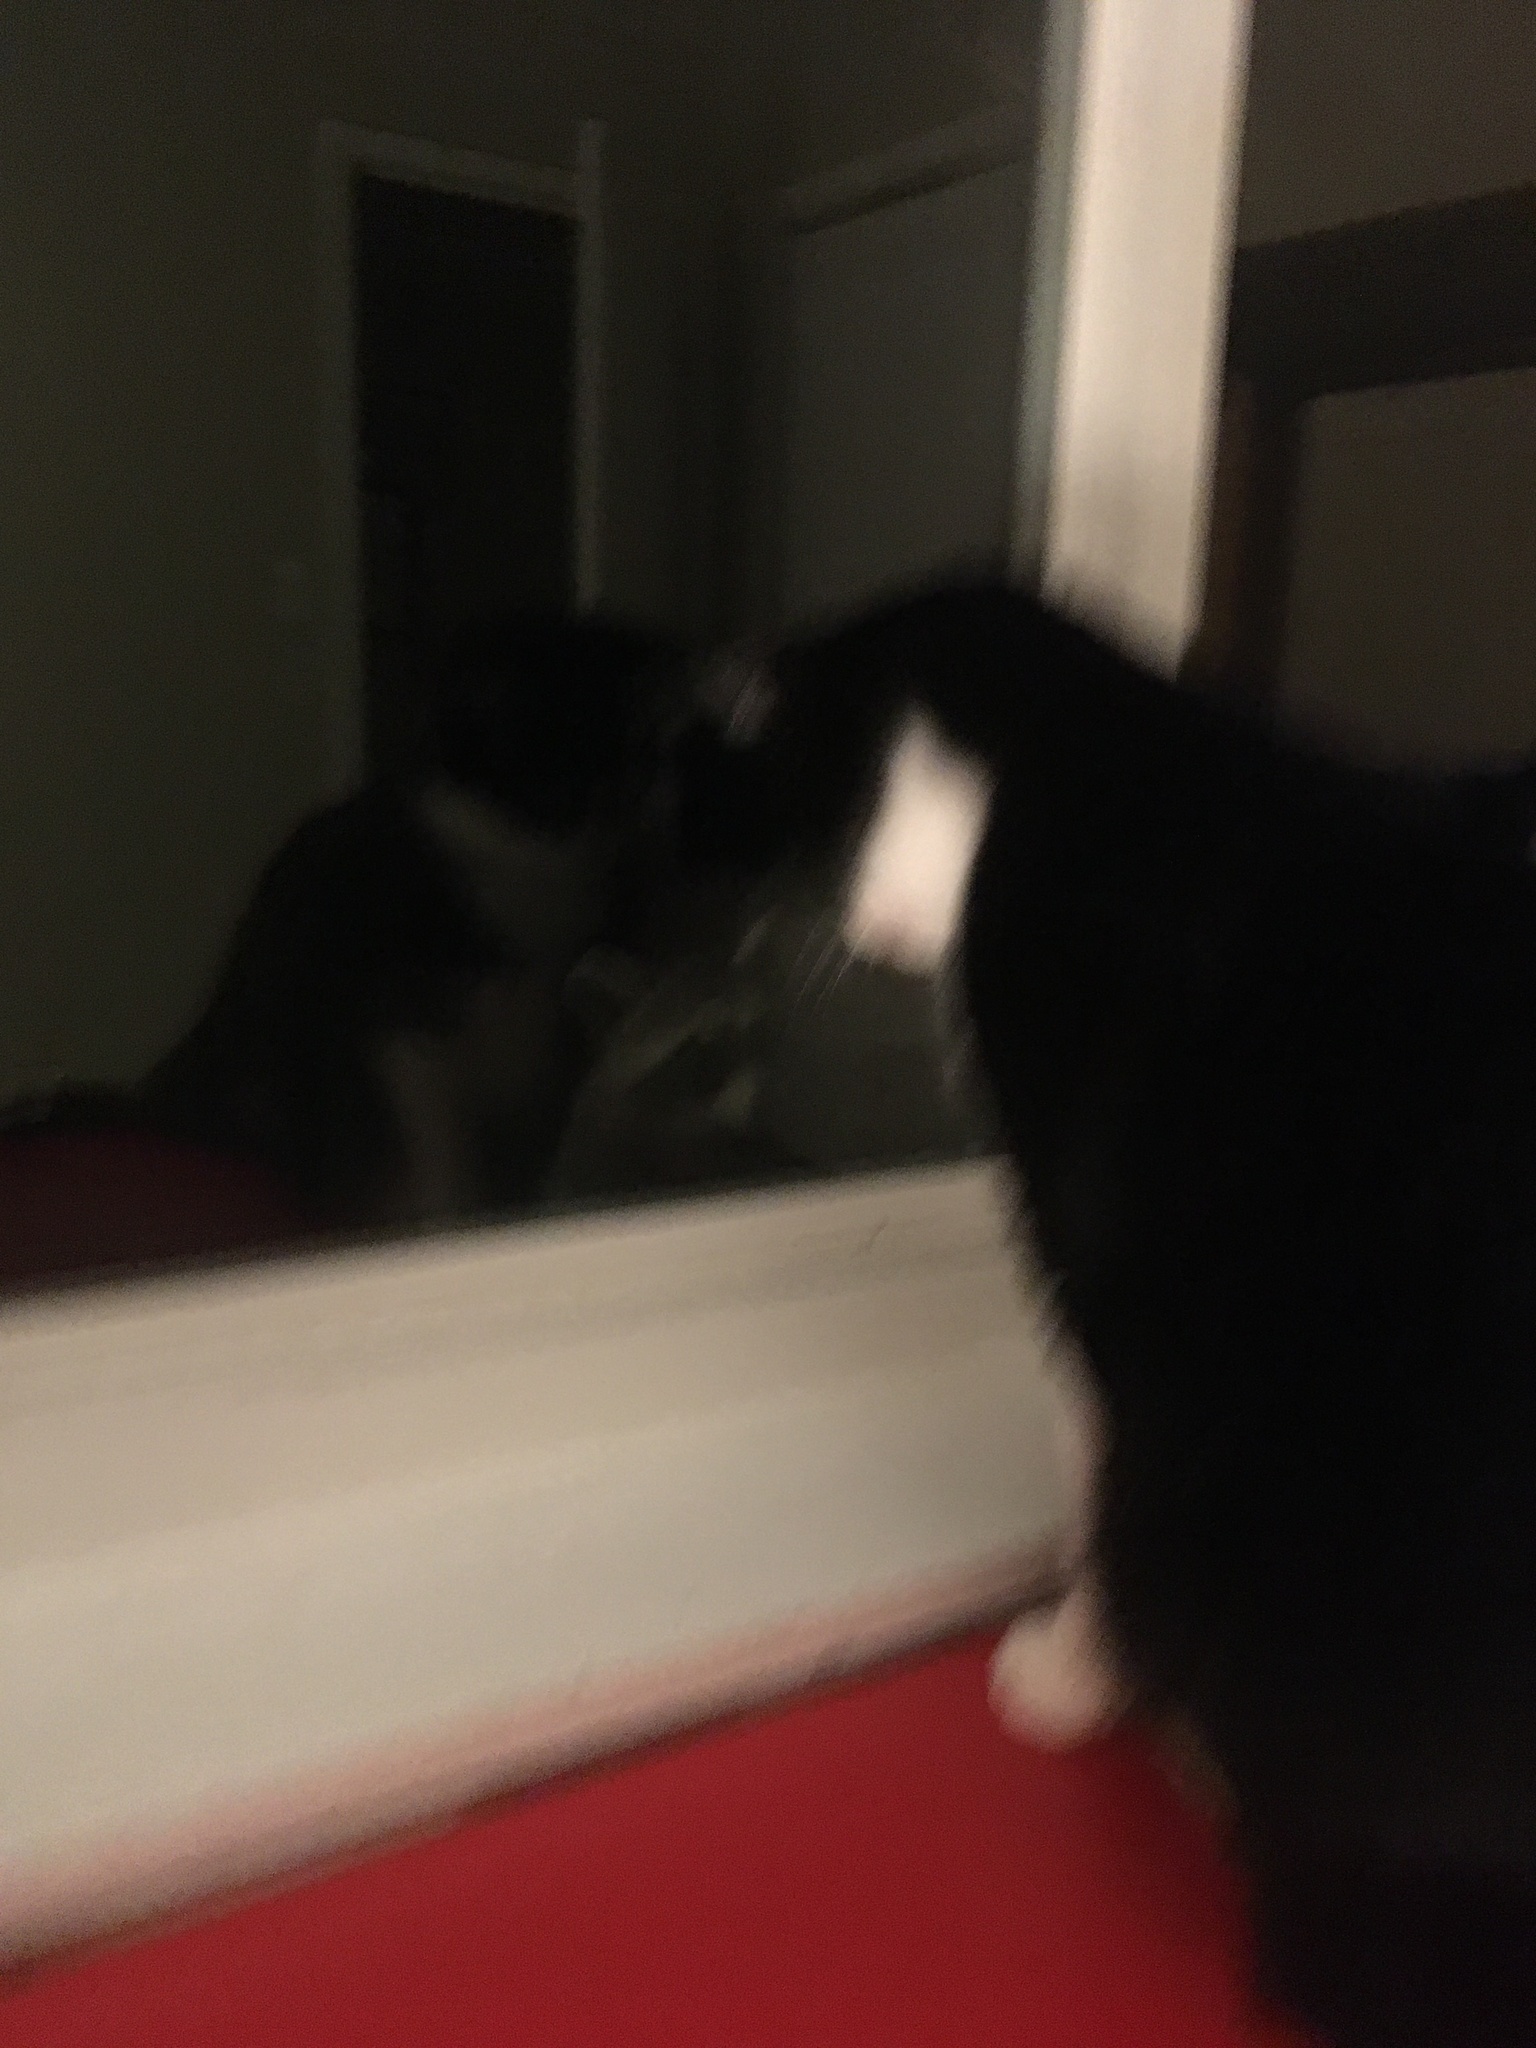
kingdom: Animalia
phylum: Chordata
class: Mammalia
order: Carnivora
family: Procyonidae
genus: Procyon
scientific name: Procyon lotor
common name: Raccoon
